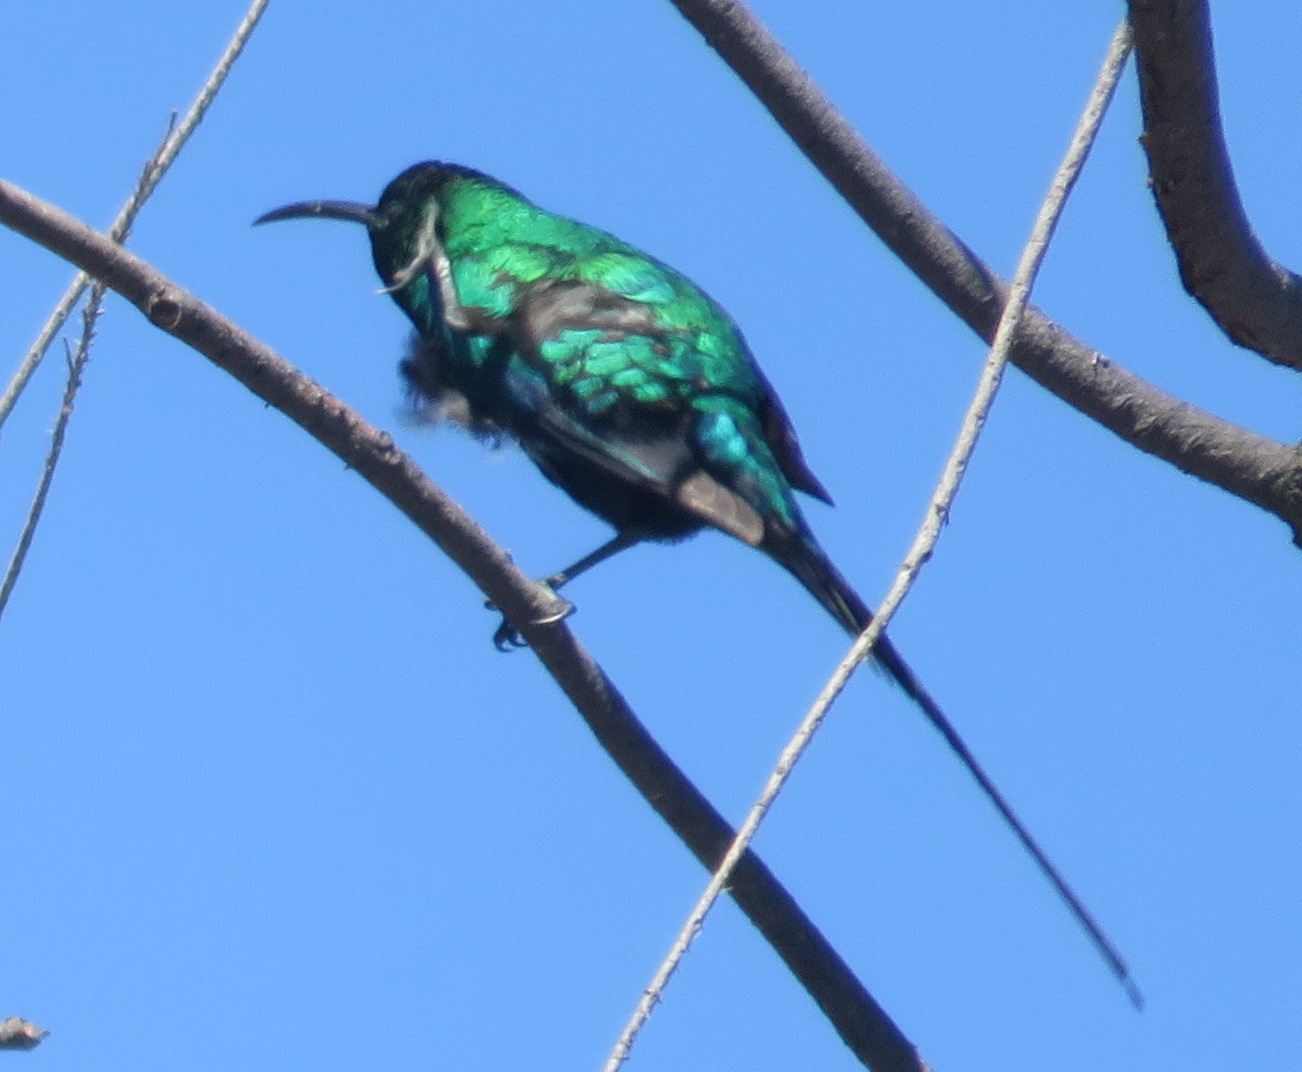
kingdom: Animalia
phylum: Chordata
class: Aves
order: Passeriformes
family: Nectariniidae
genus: Nectarinia
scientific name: Nectarinia famosa
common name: Malachite sunbird
